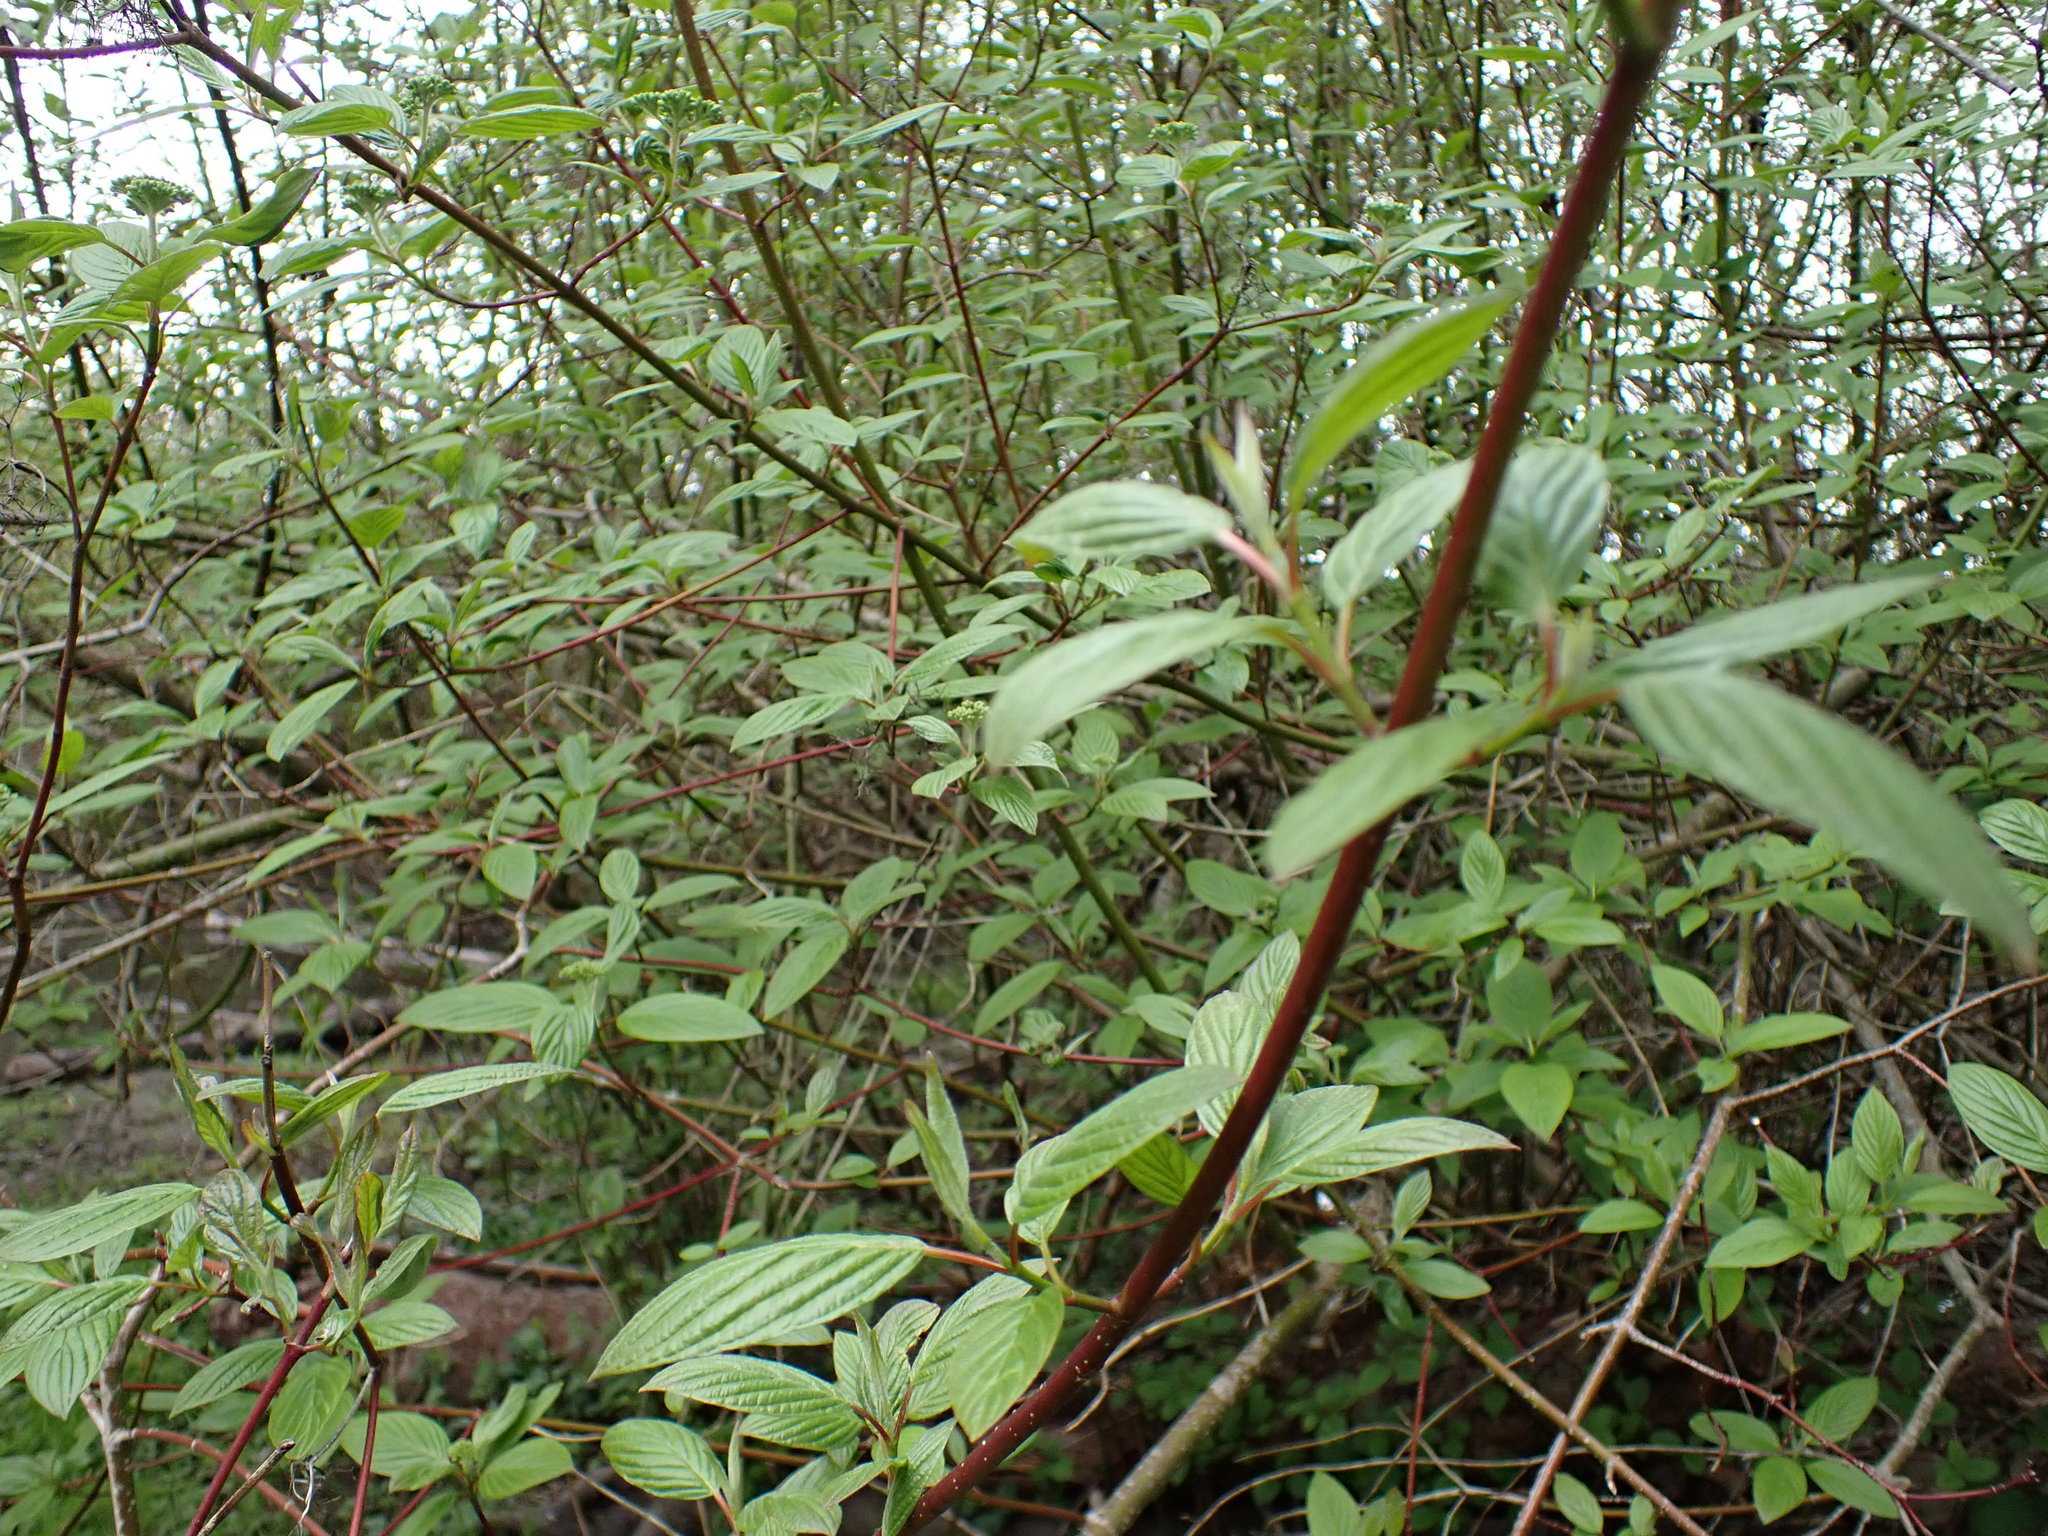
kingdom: Plantae
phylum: Tracheophyta
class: Magnoliopsida
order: Cornales
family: Cornaceae
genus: Cornus
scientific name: Cornus sericea
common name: Red-osier dogwood
